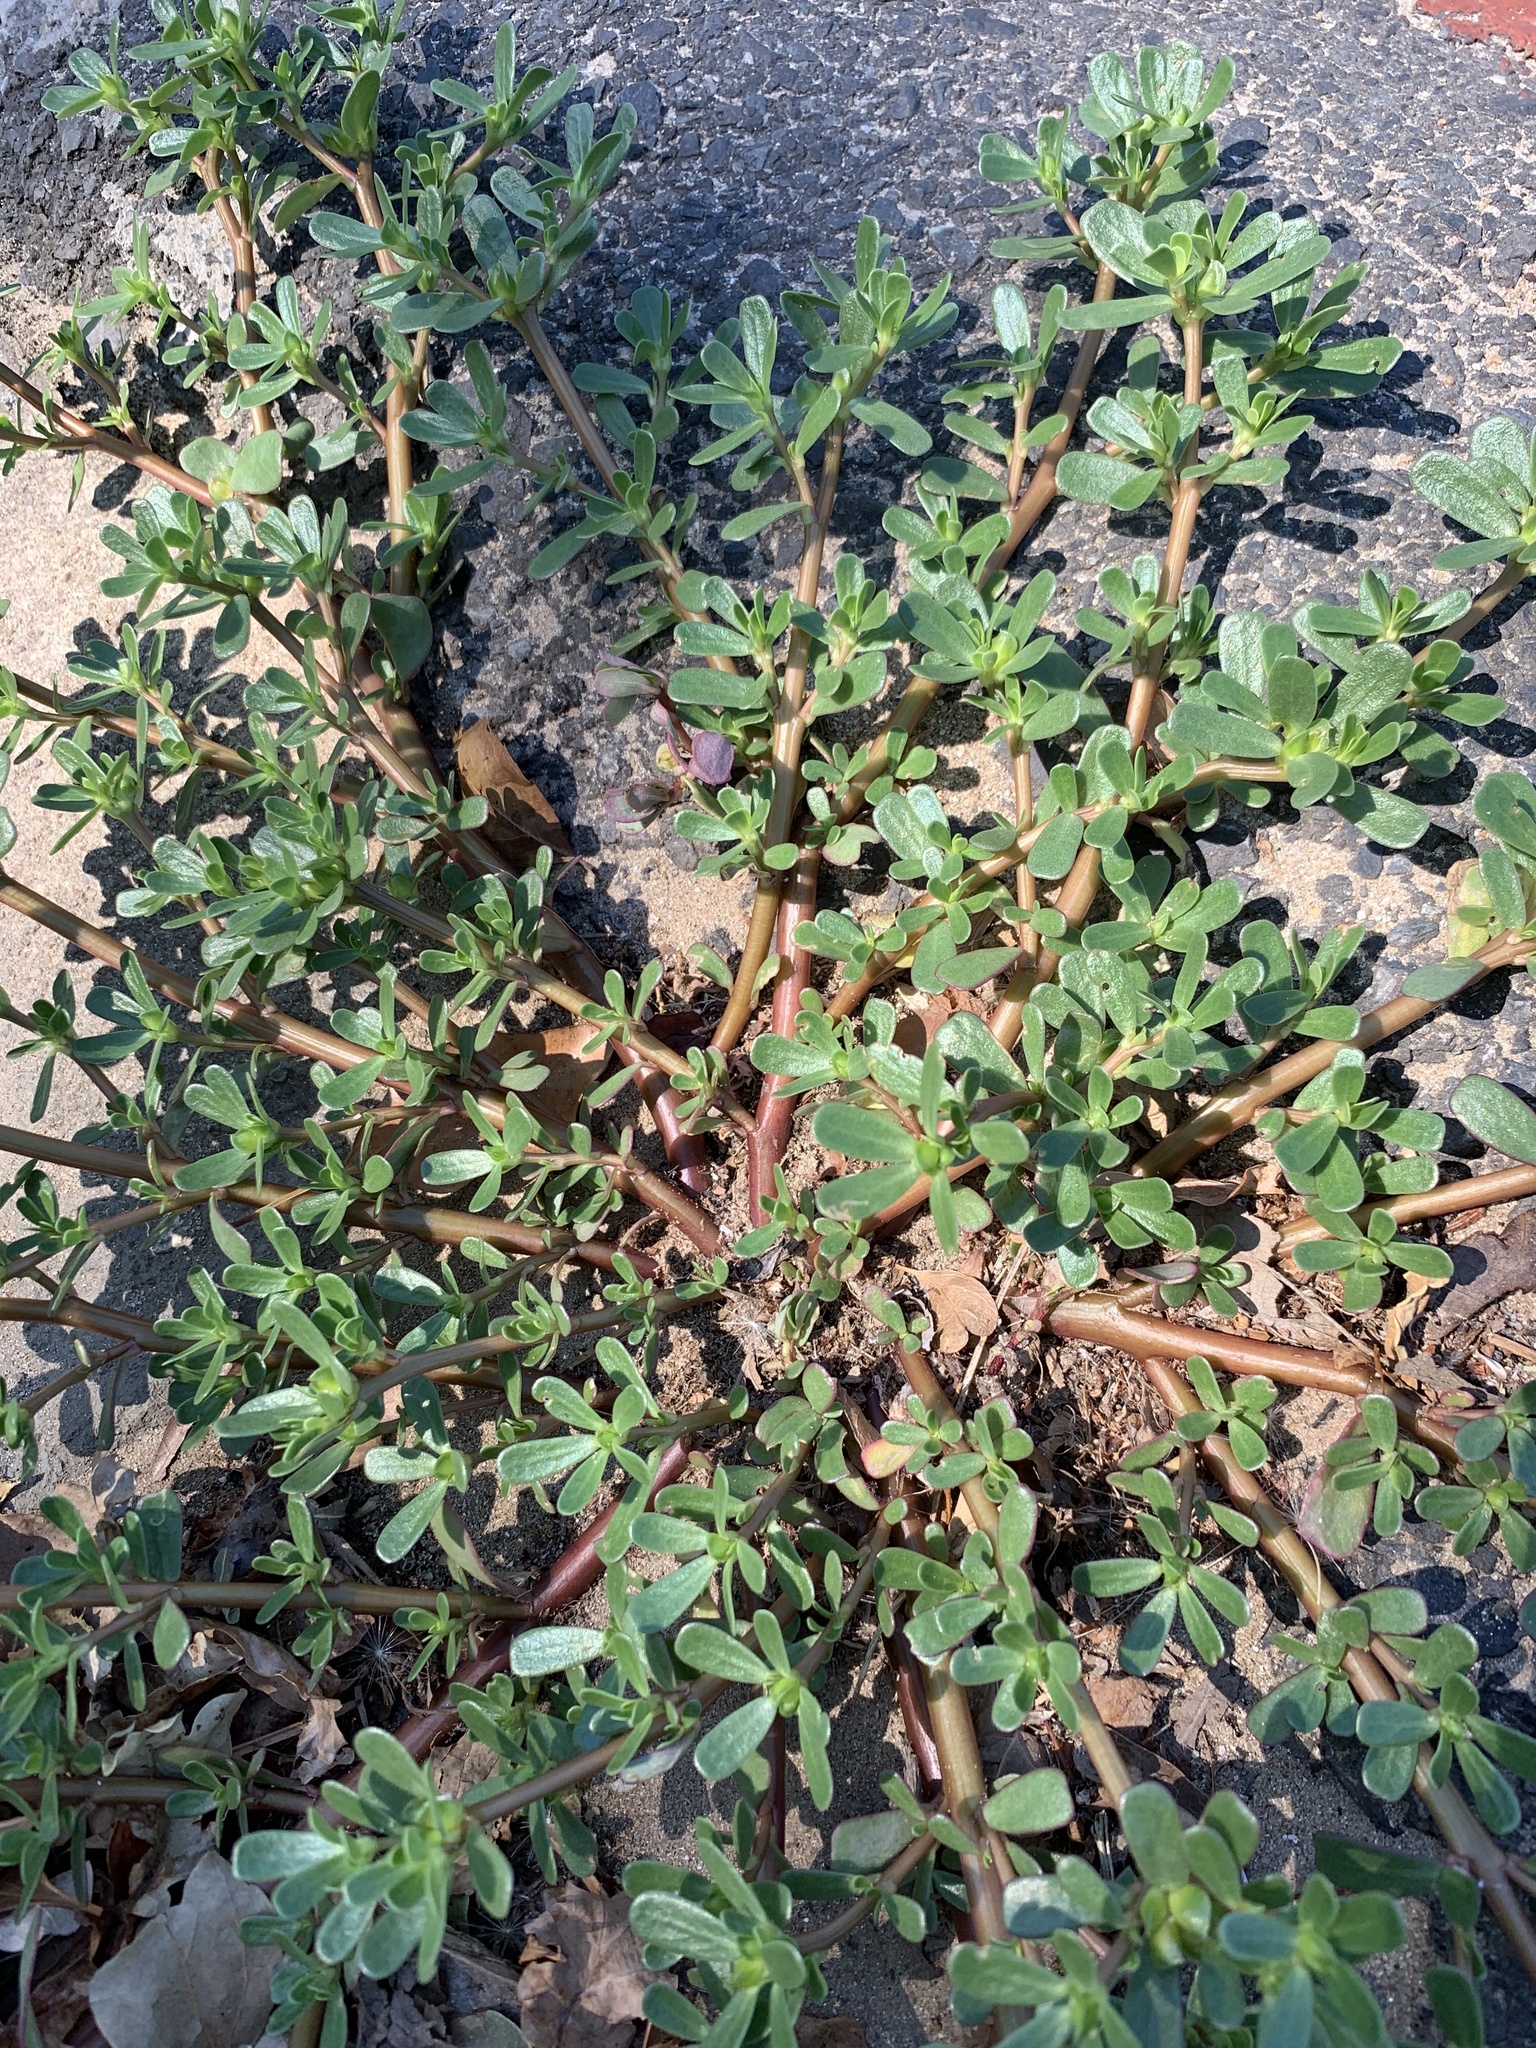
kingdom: Plantae
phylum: Tracheophyta
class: Magnoliopsida
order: Caryophyllales
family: Portulacaceae
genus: Portulaca
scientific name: Portulaca oleracea
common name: Common purslane
